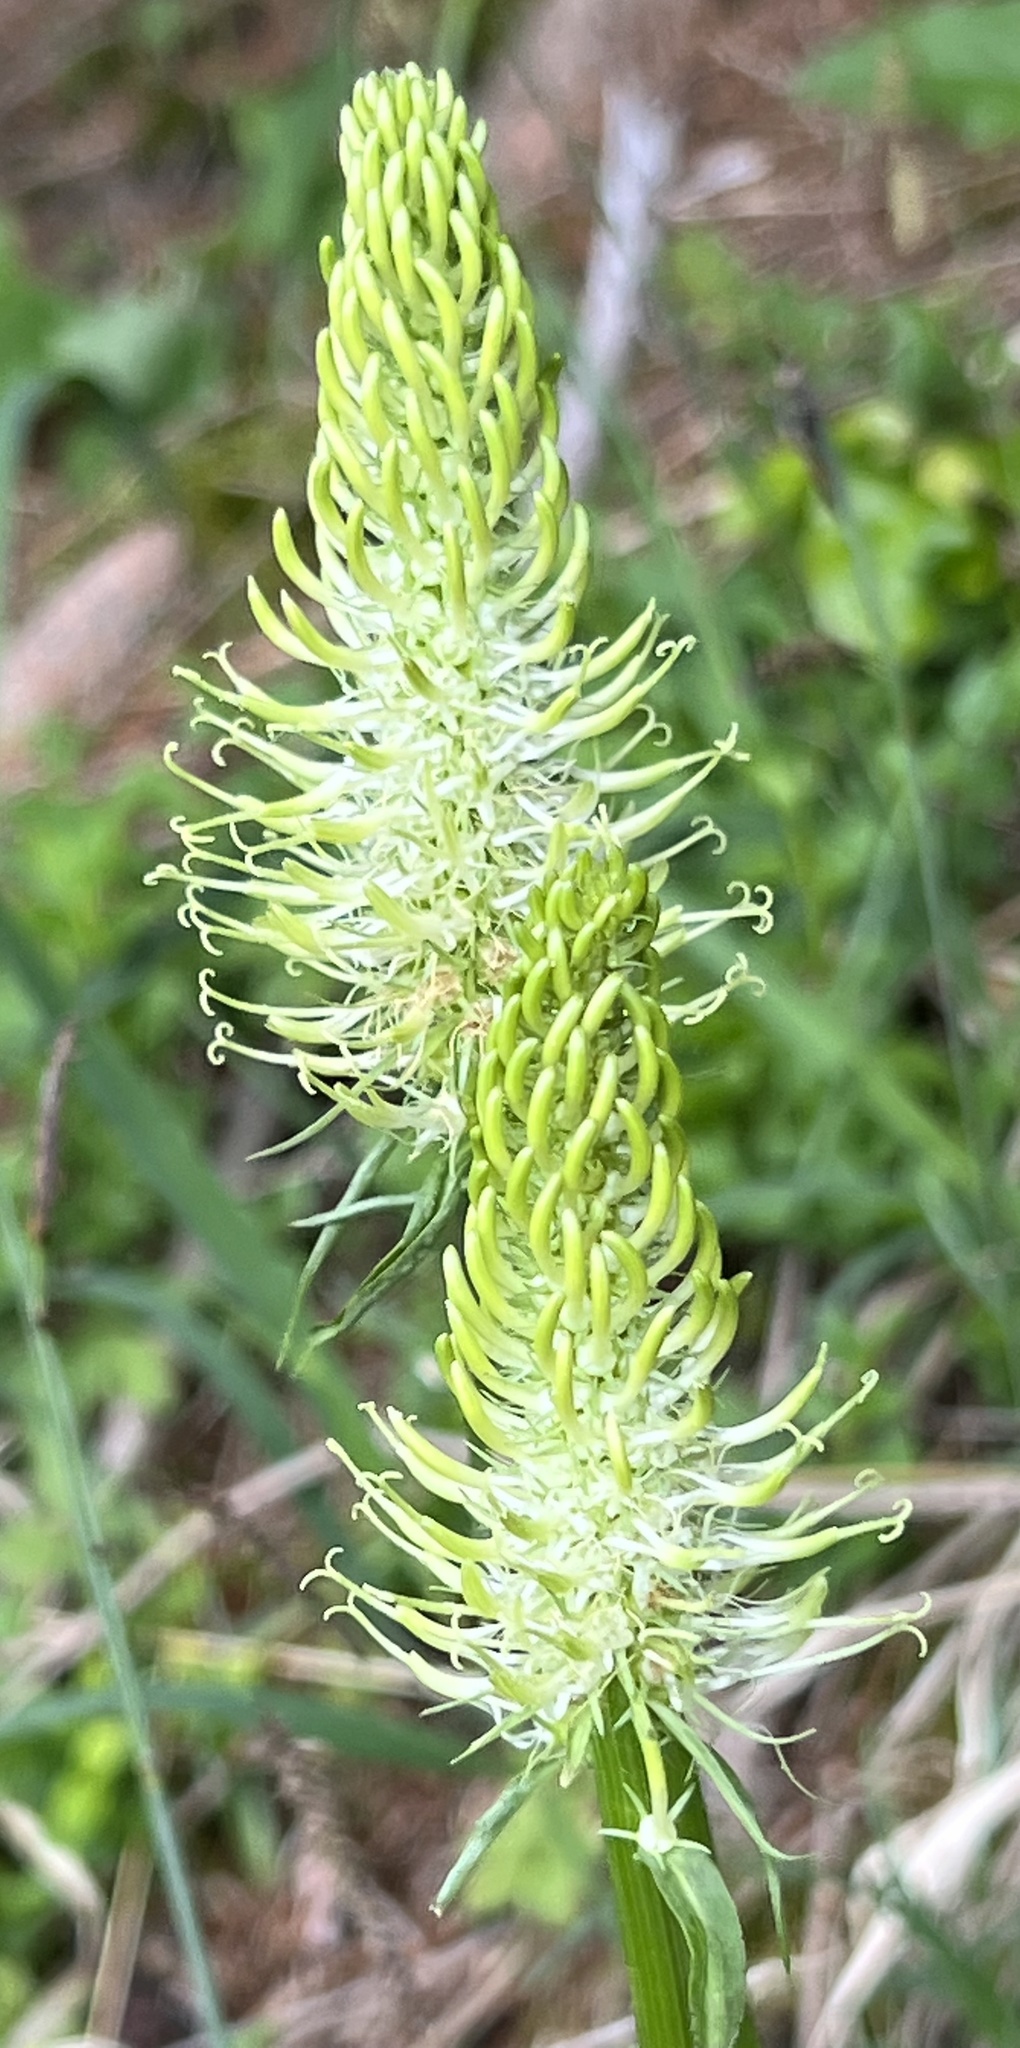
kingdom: Plantae
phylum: Tracheophyta
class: Magnoliopsida
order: Asterales
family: Campanulaceae
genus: Phyteuma
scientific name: Phyteuma spicatum
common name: Spiked rampion
